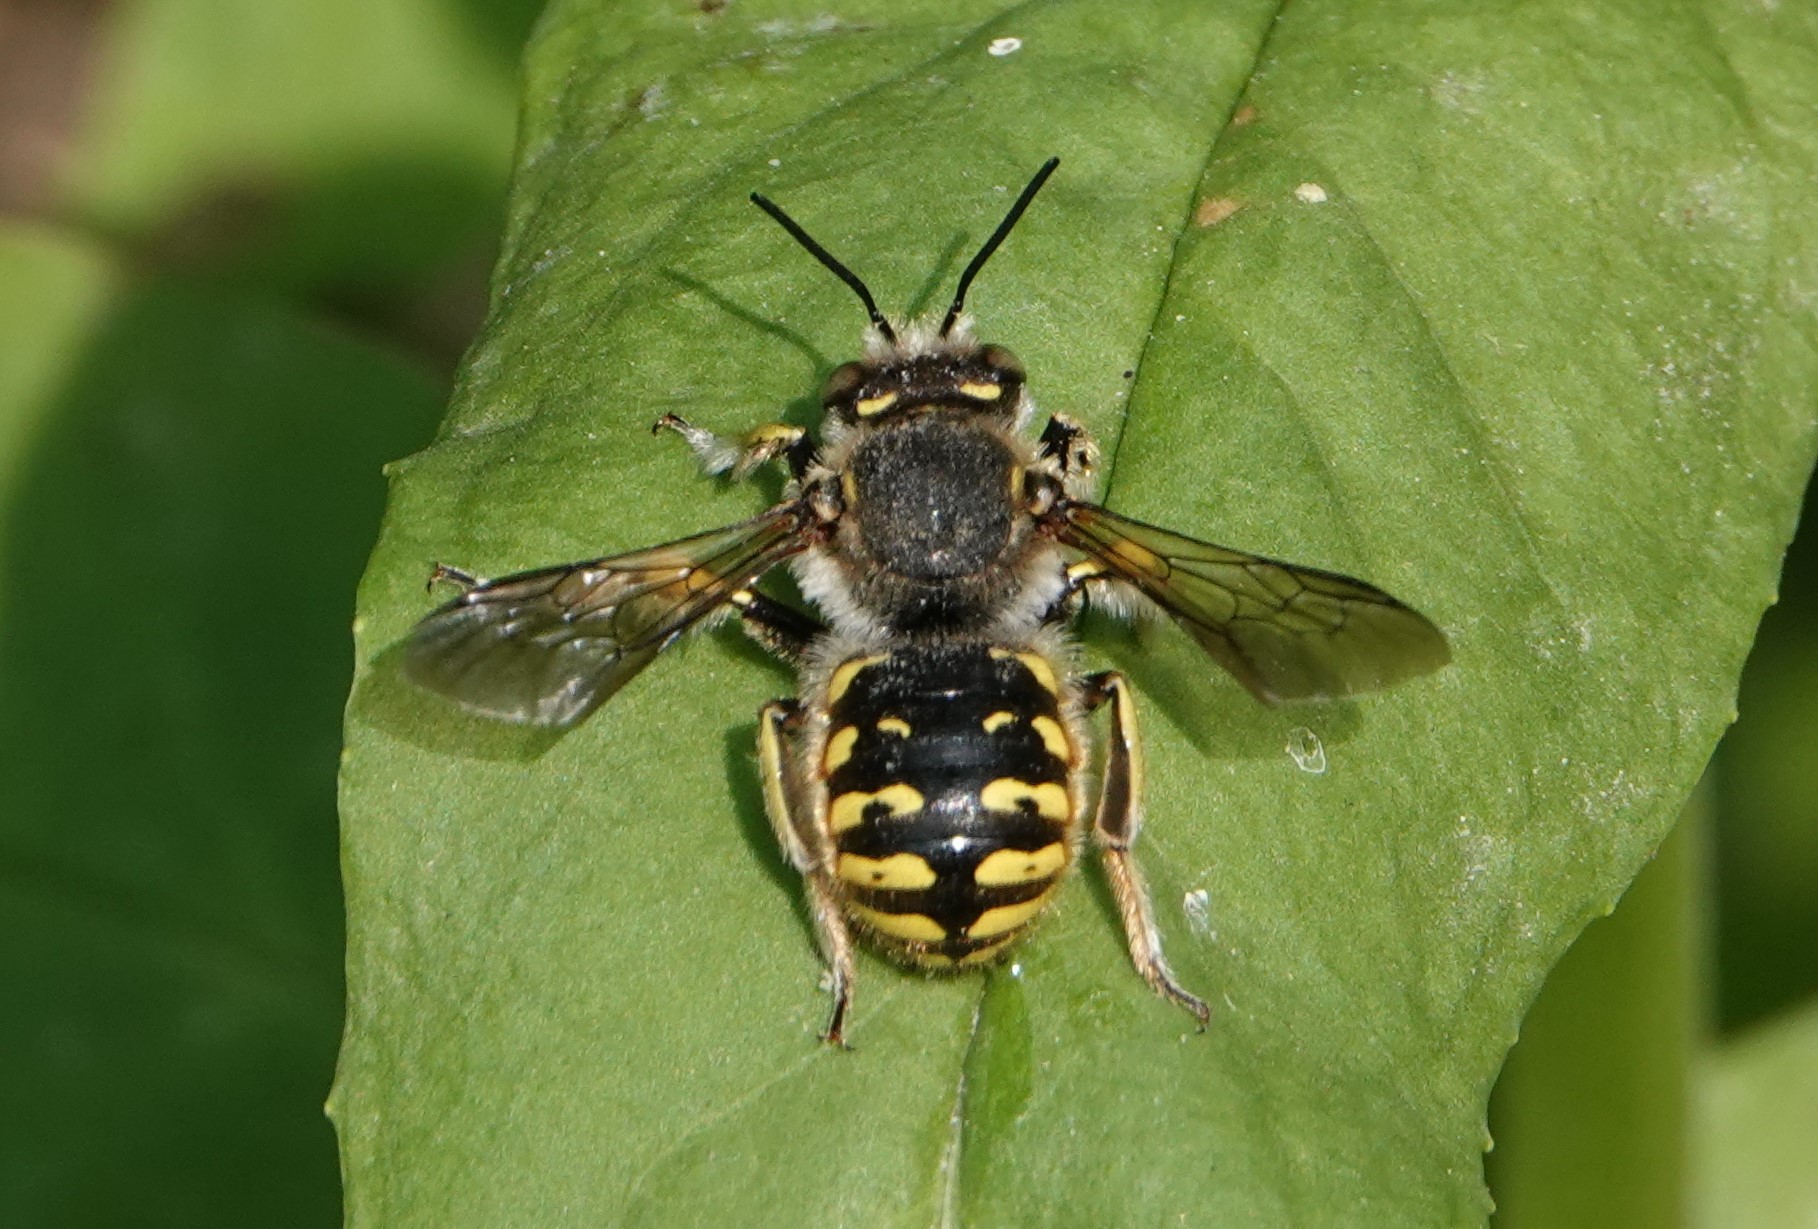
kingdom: Animalia
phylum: Arthropoda
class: Insecta
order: Hymenoptera
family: Megachilidae
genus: Anthidium
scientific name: Anthidium manicatum
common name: Wool carder bee
